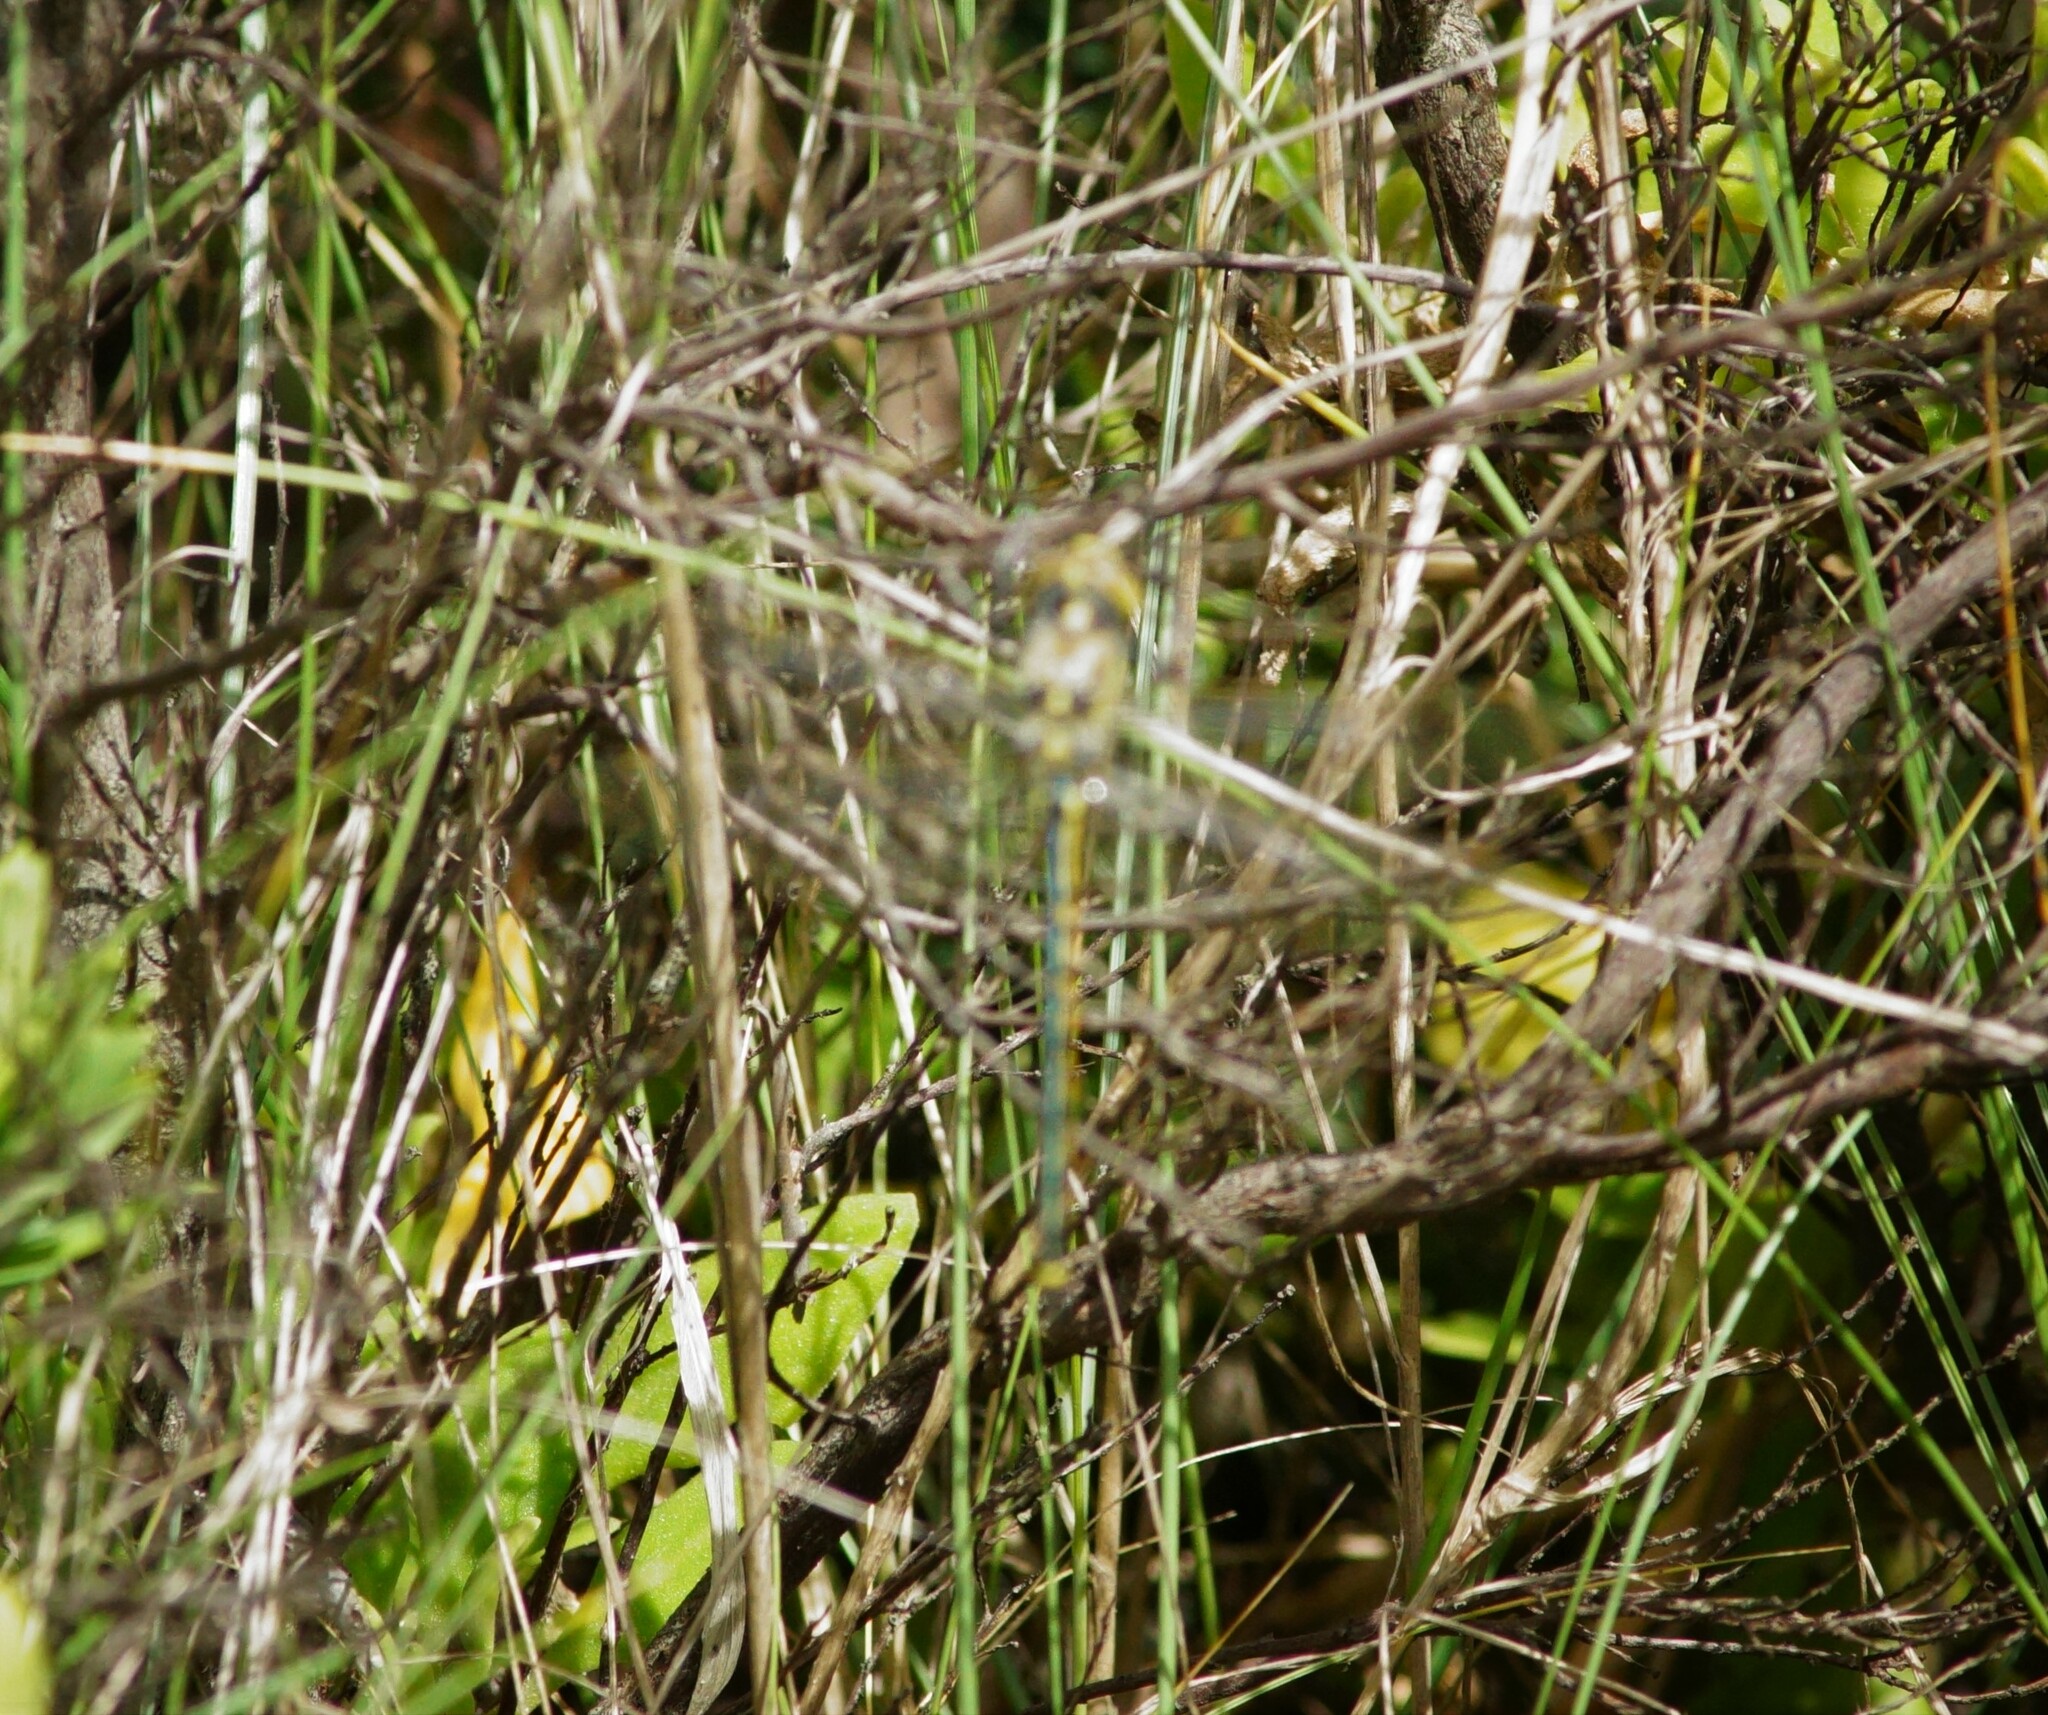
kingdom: Animalia
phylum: Arthropoda
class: Insecta
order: Odonata
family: Corduliidae
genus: Hemicordulia
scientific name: Hemicordulia tau
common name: Tau emerald
